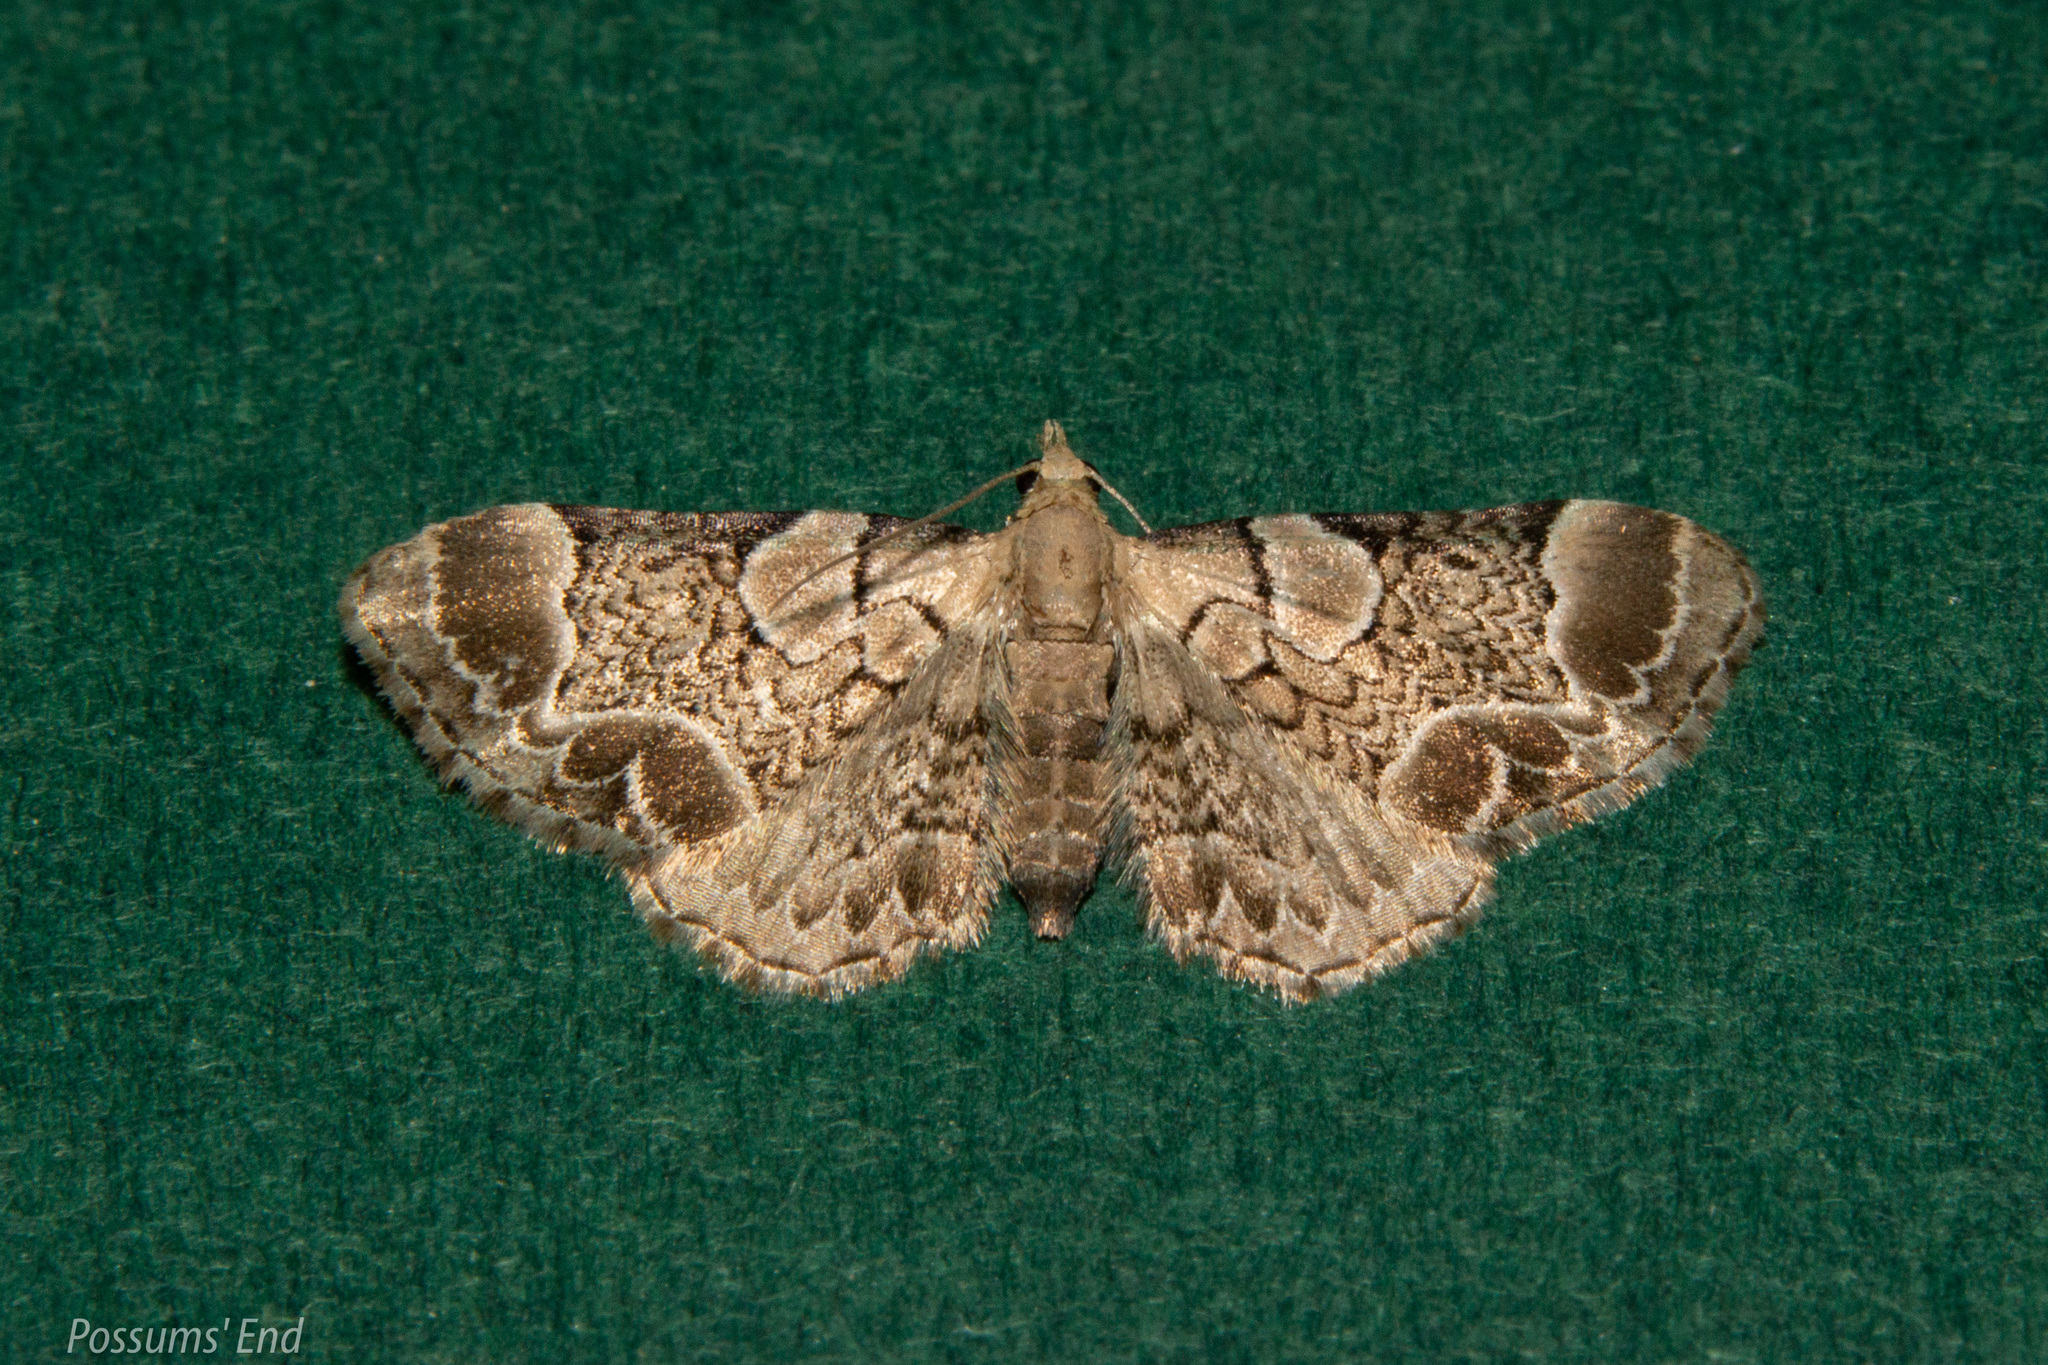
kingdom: Animalia
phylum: Arthropoda
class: Insecta
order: Lepidoptera
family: Geometridae
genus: Chloroclystis
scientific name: Chloroclystis
